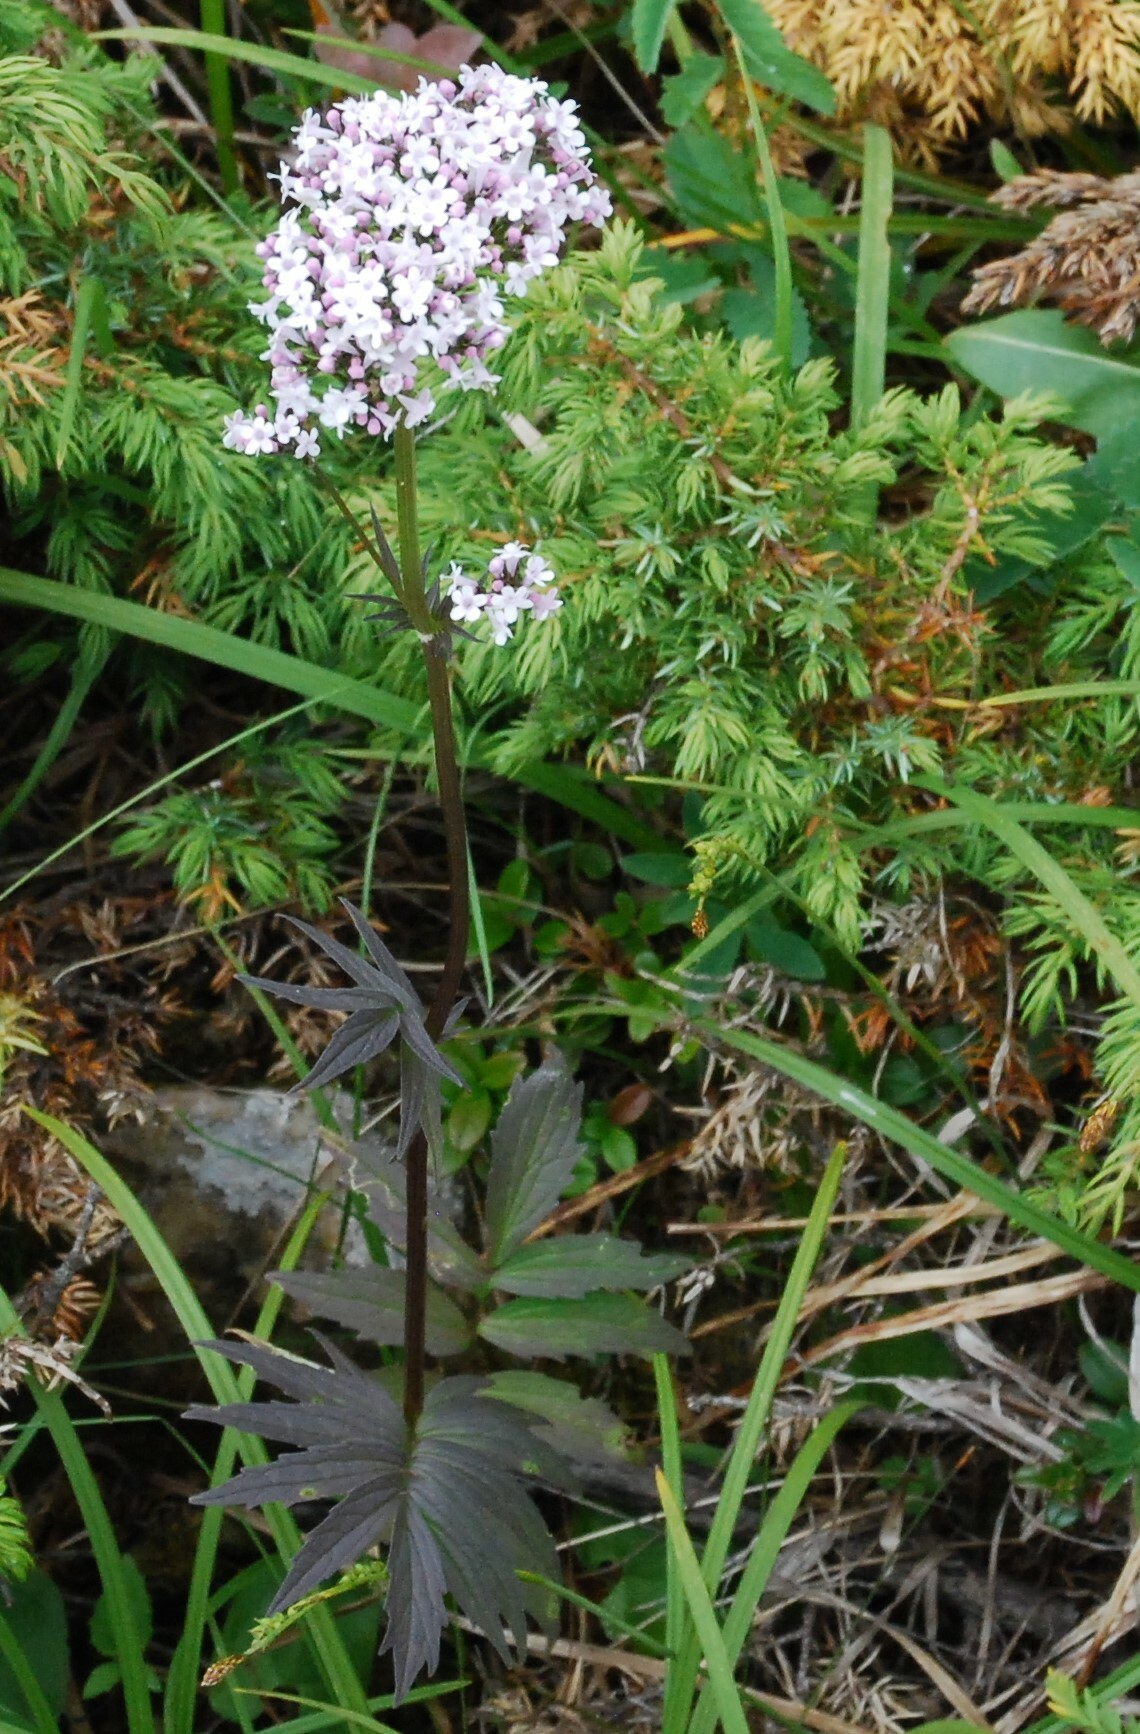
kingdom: Plantae
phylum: Tracheophyta
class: Magnoliopsida
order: Dipsacales
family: Caprifoliaceae
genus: Valeriana
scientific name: Valeriana officinalis
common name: Common valerian
